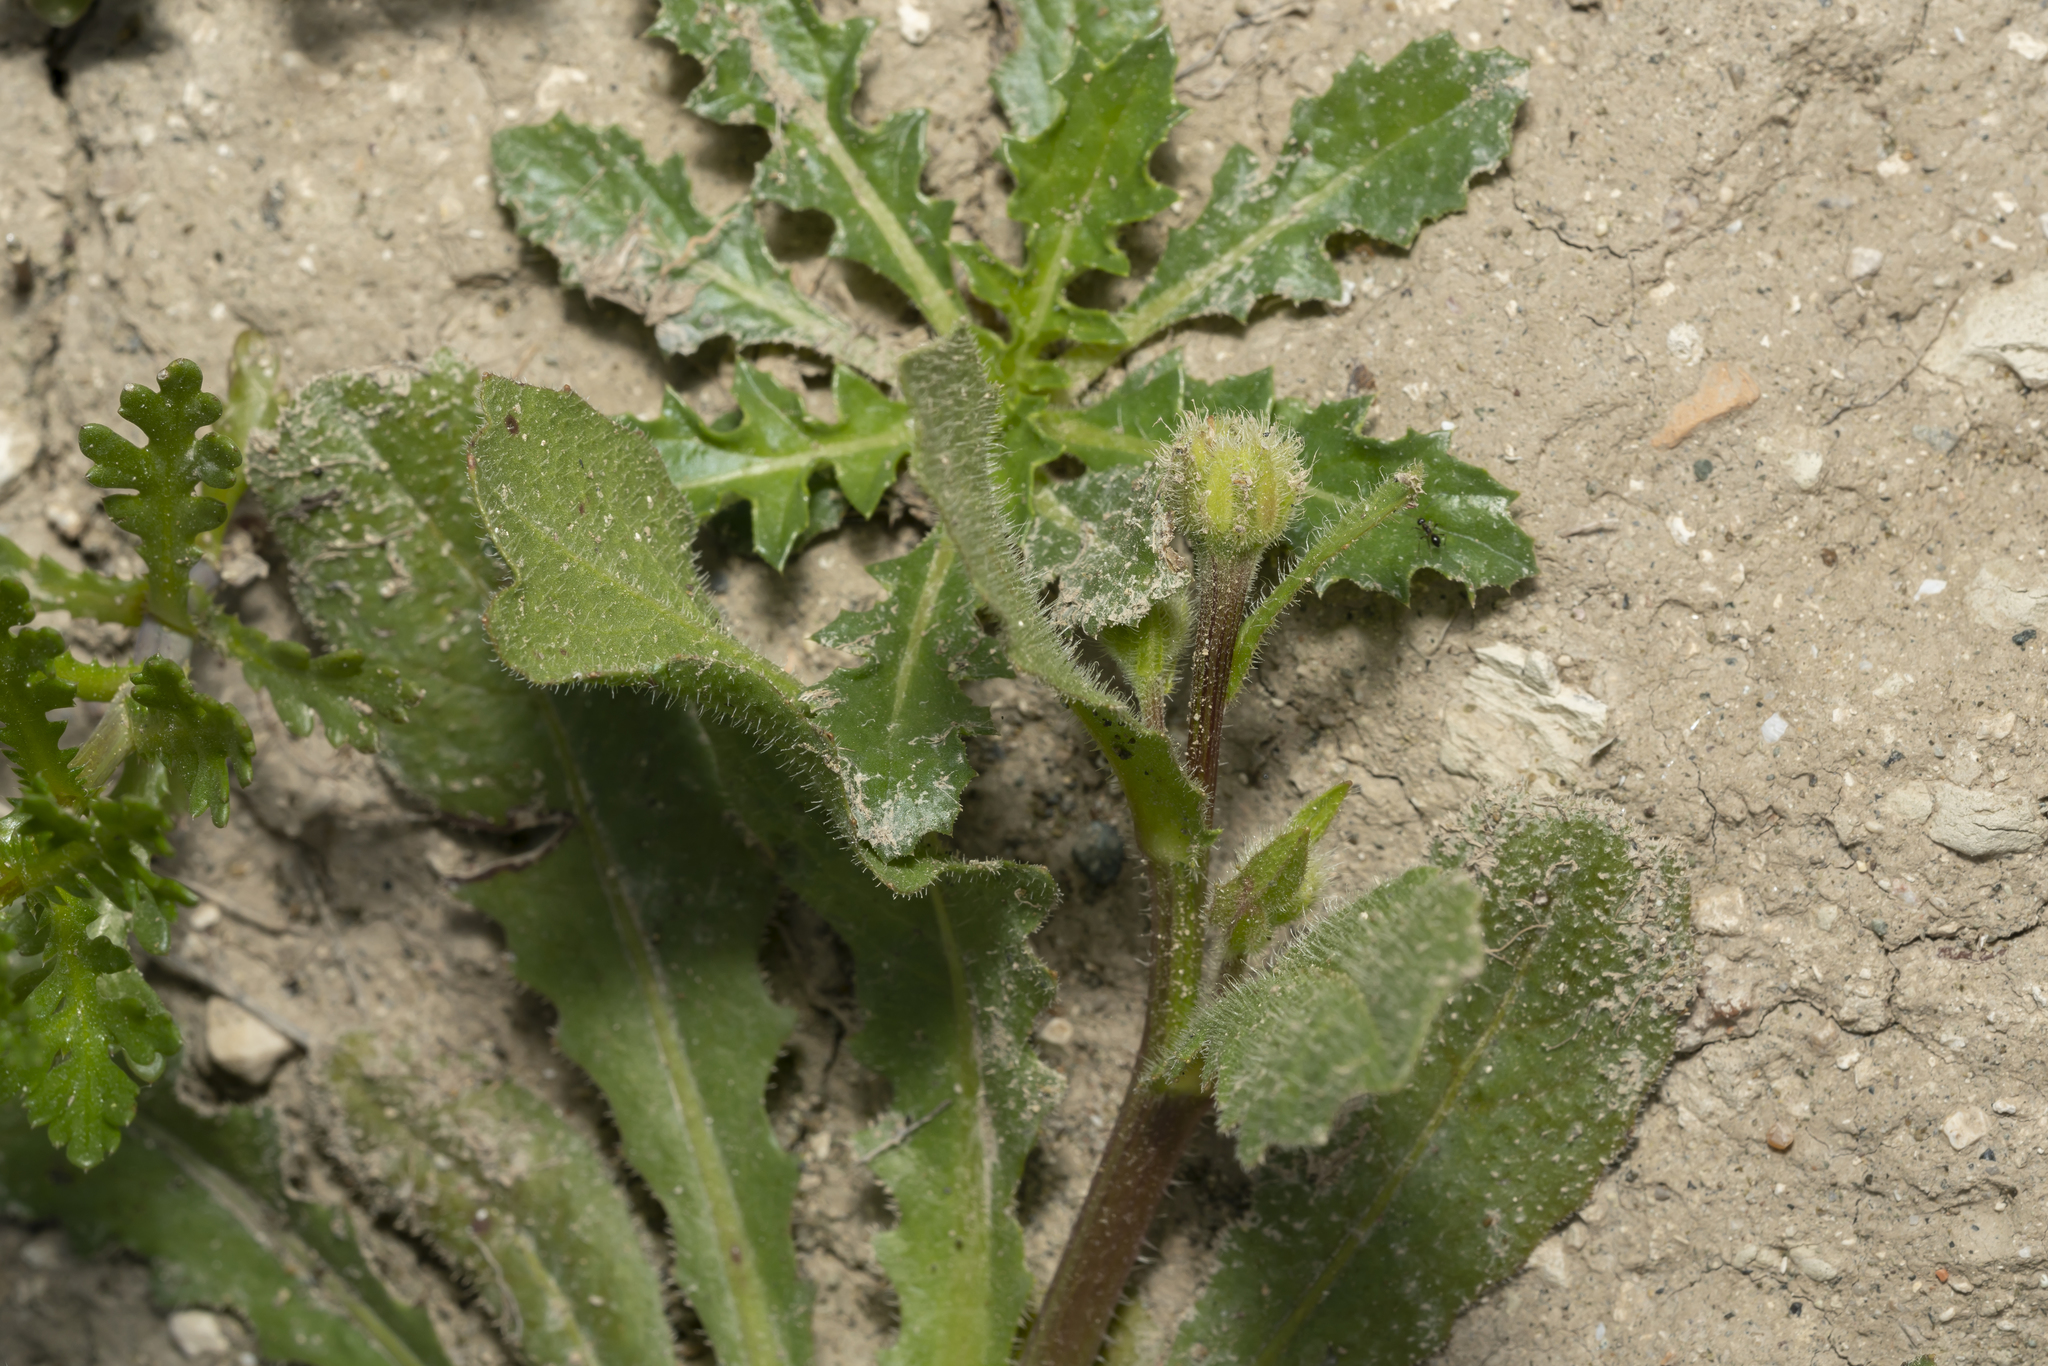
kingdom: Plantae
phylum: Tracheophyta
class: Magnoliopsida
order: Asterales
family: Asteraceae
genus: Hedypnois
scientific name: Hedypnois rhagadioloides
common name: Cretan weed
